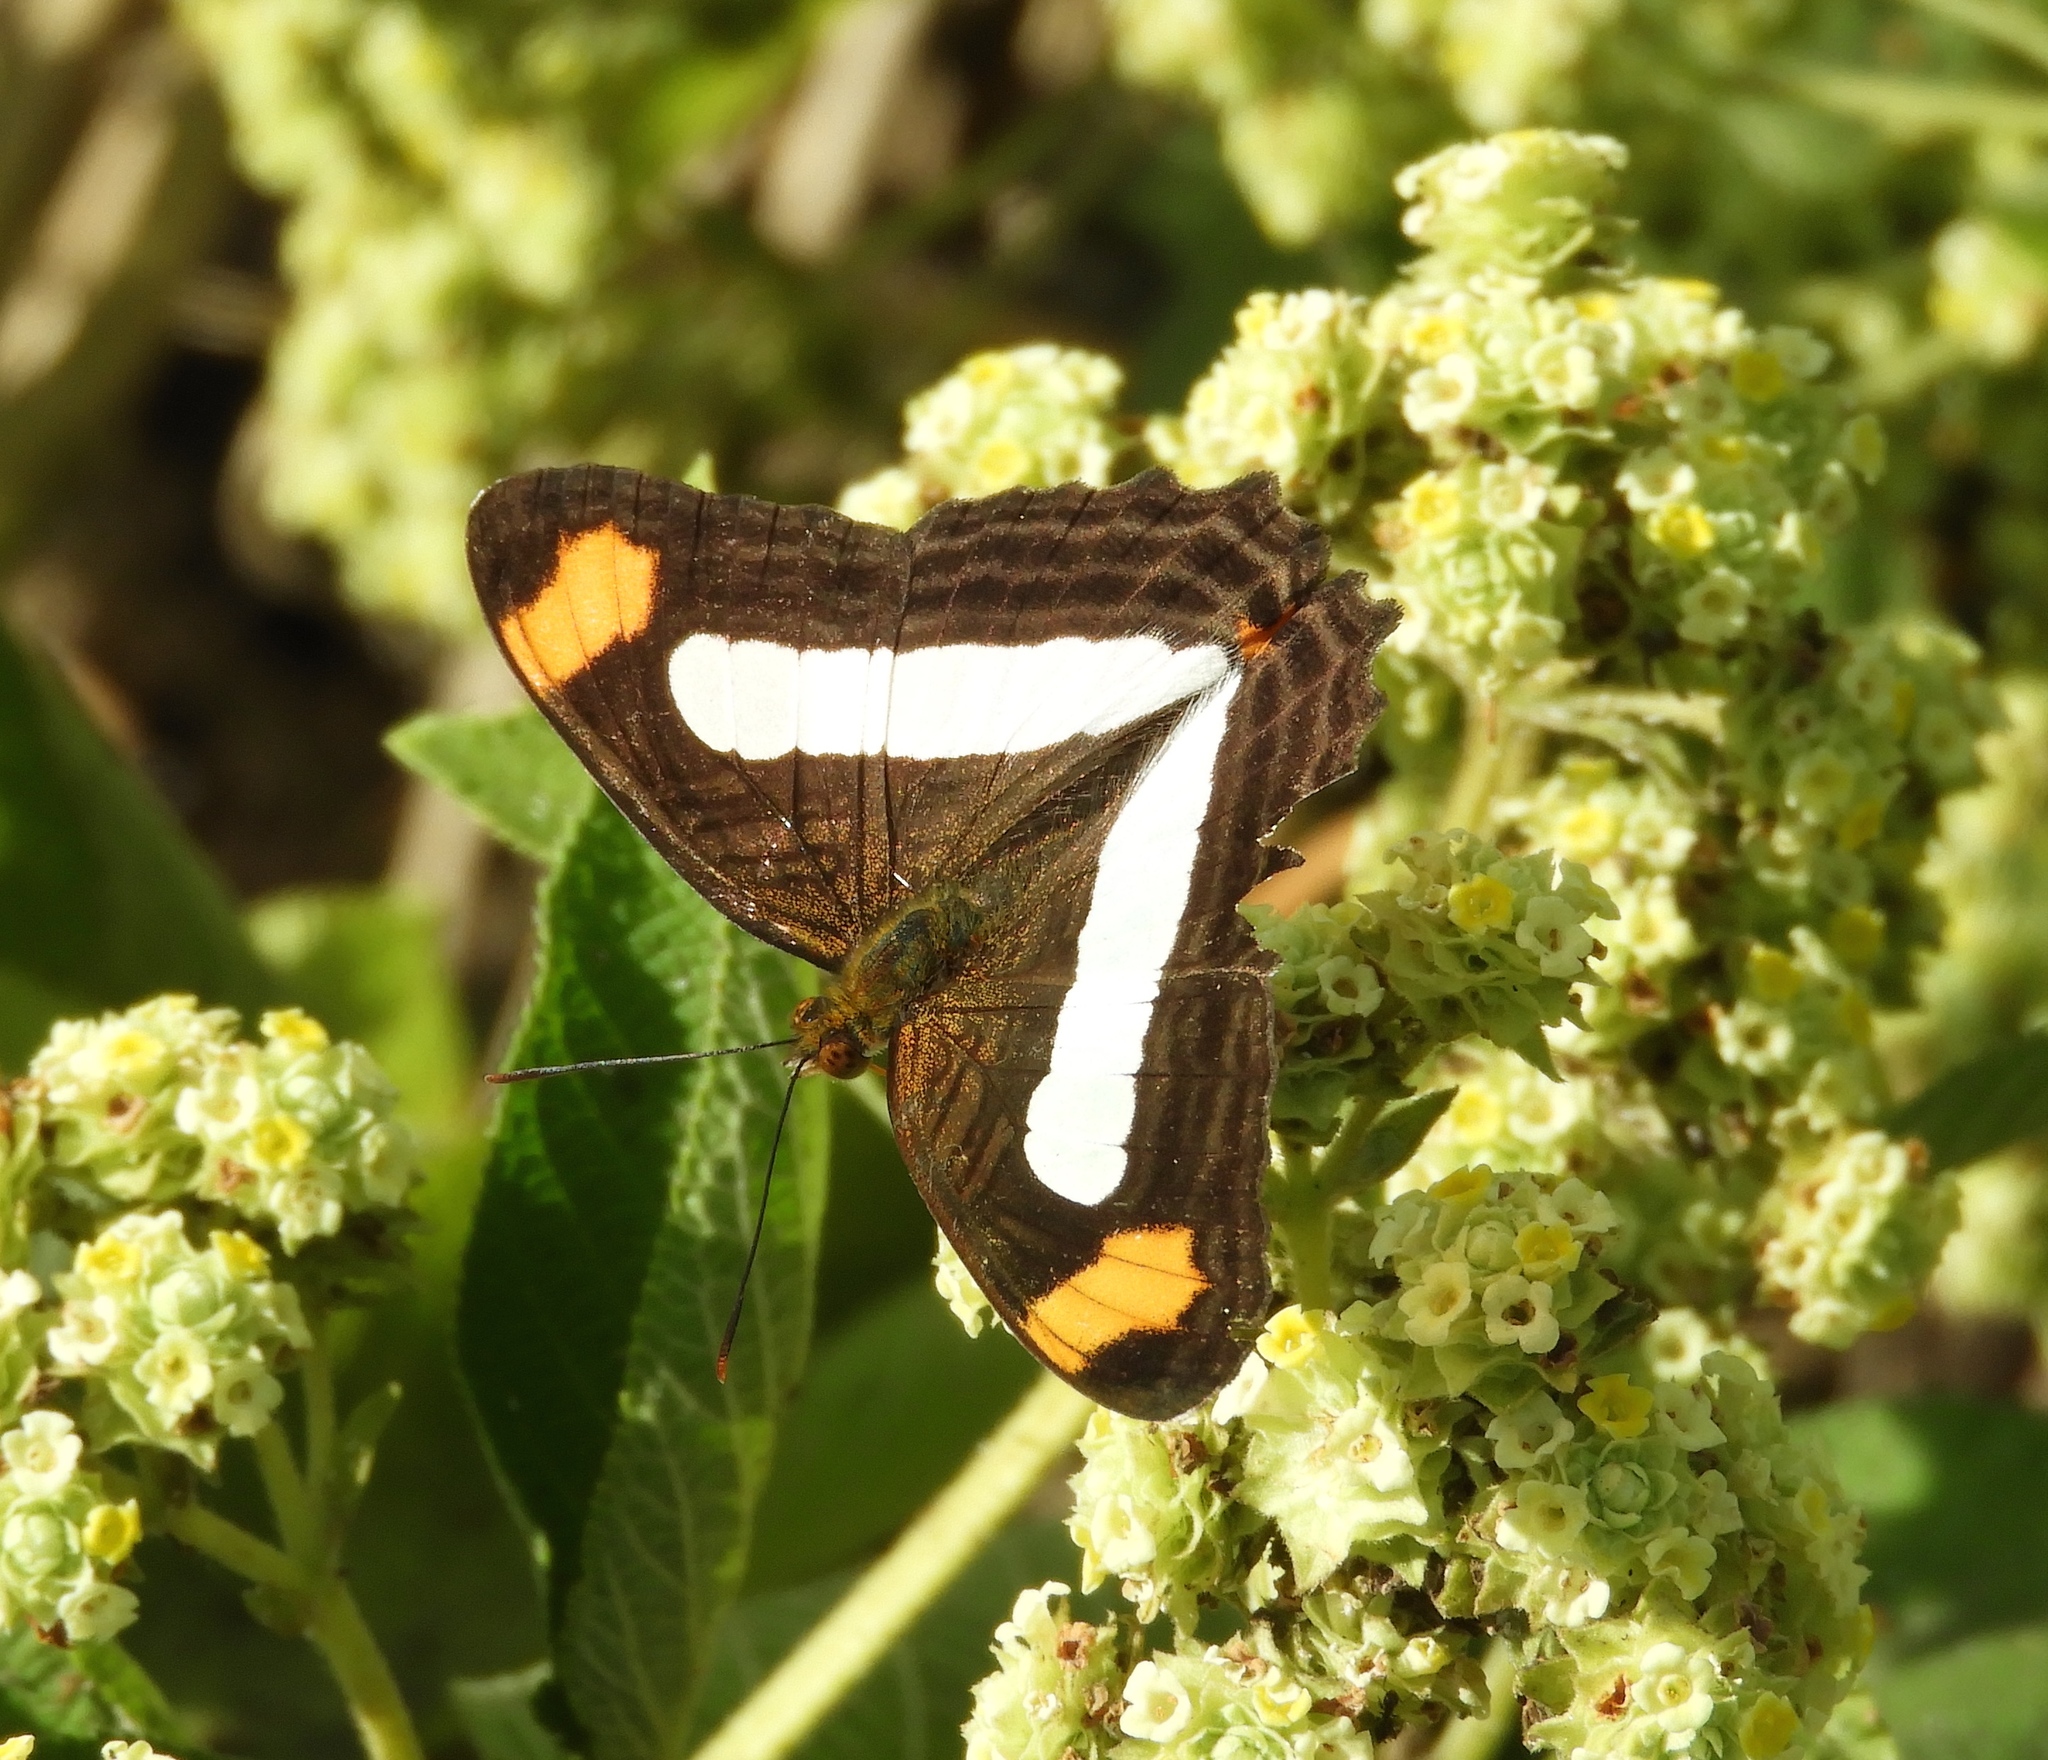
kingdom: Animalia
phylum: Arthropoda
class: Insecta
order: Lepidoptera
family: Nymphalidae
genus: Limenitis
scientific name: Limenitis iphiclus
